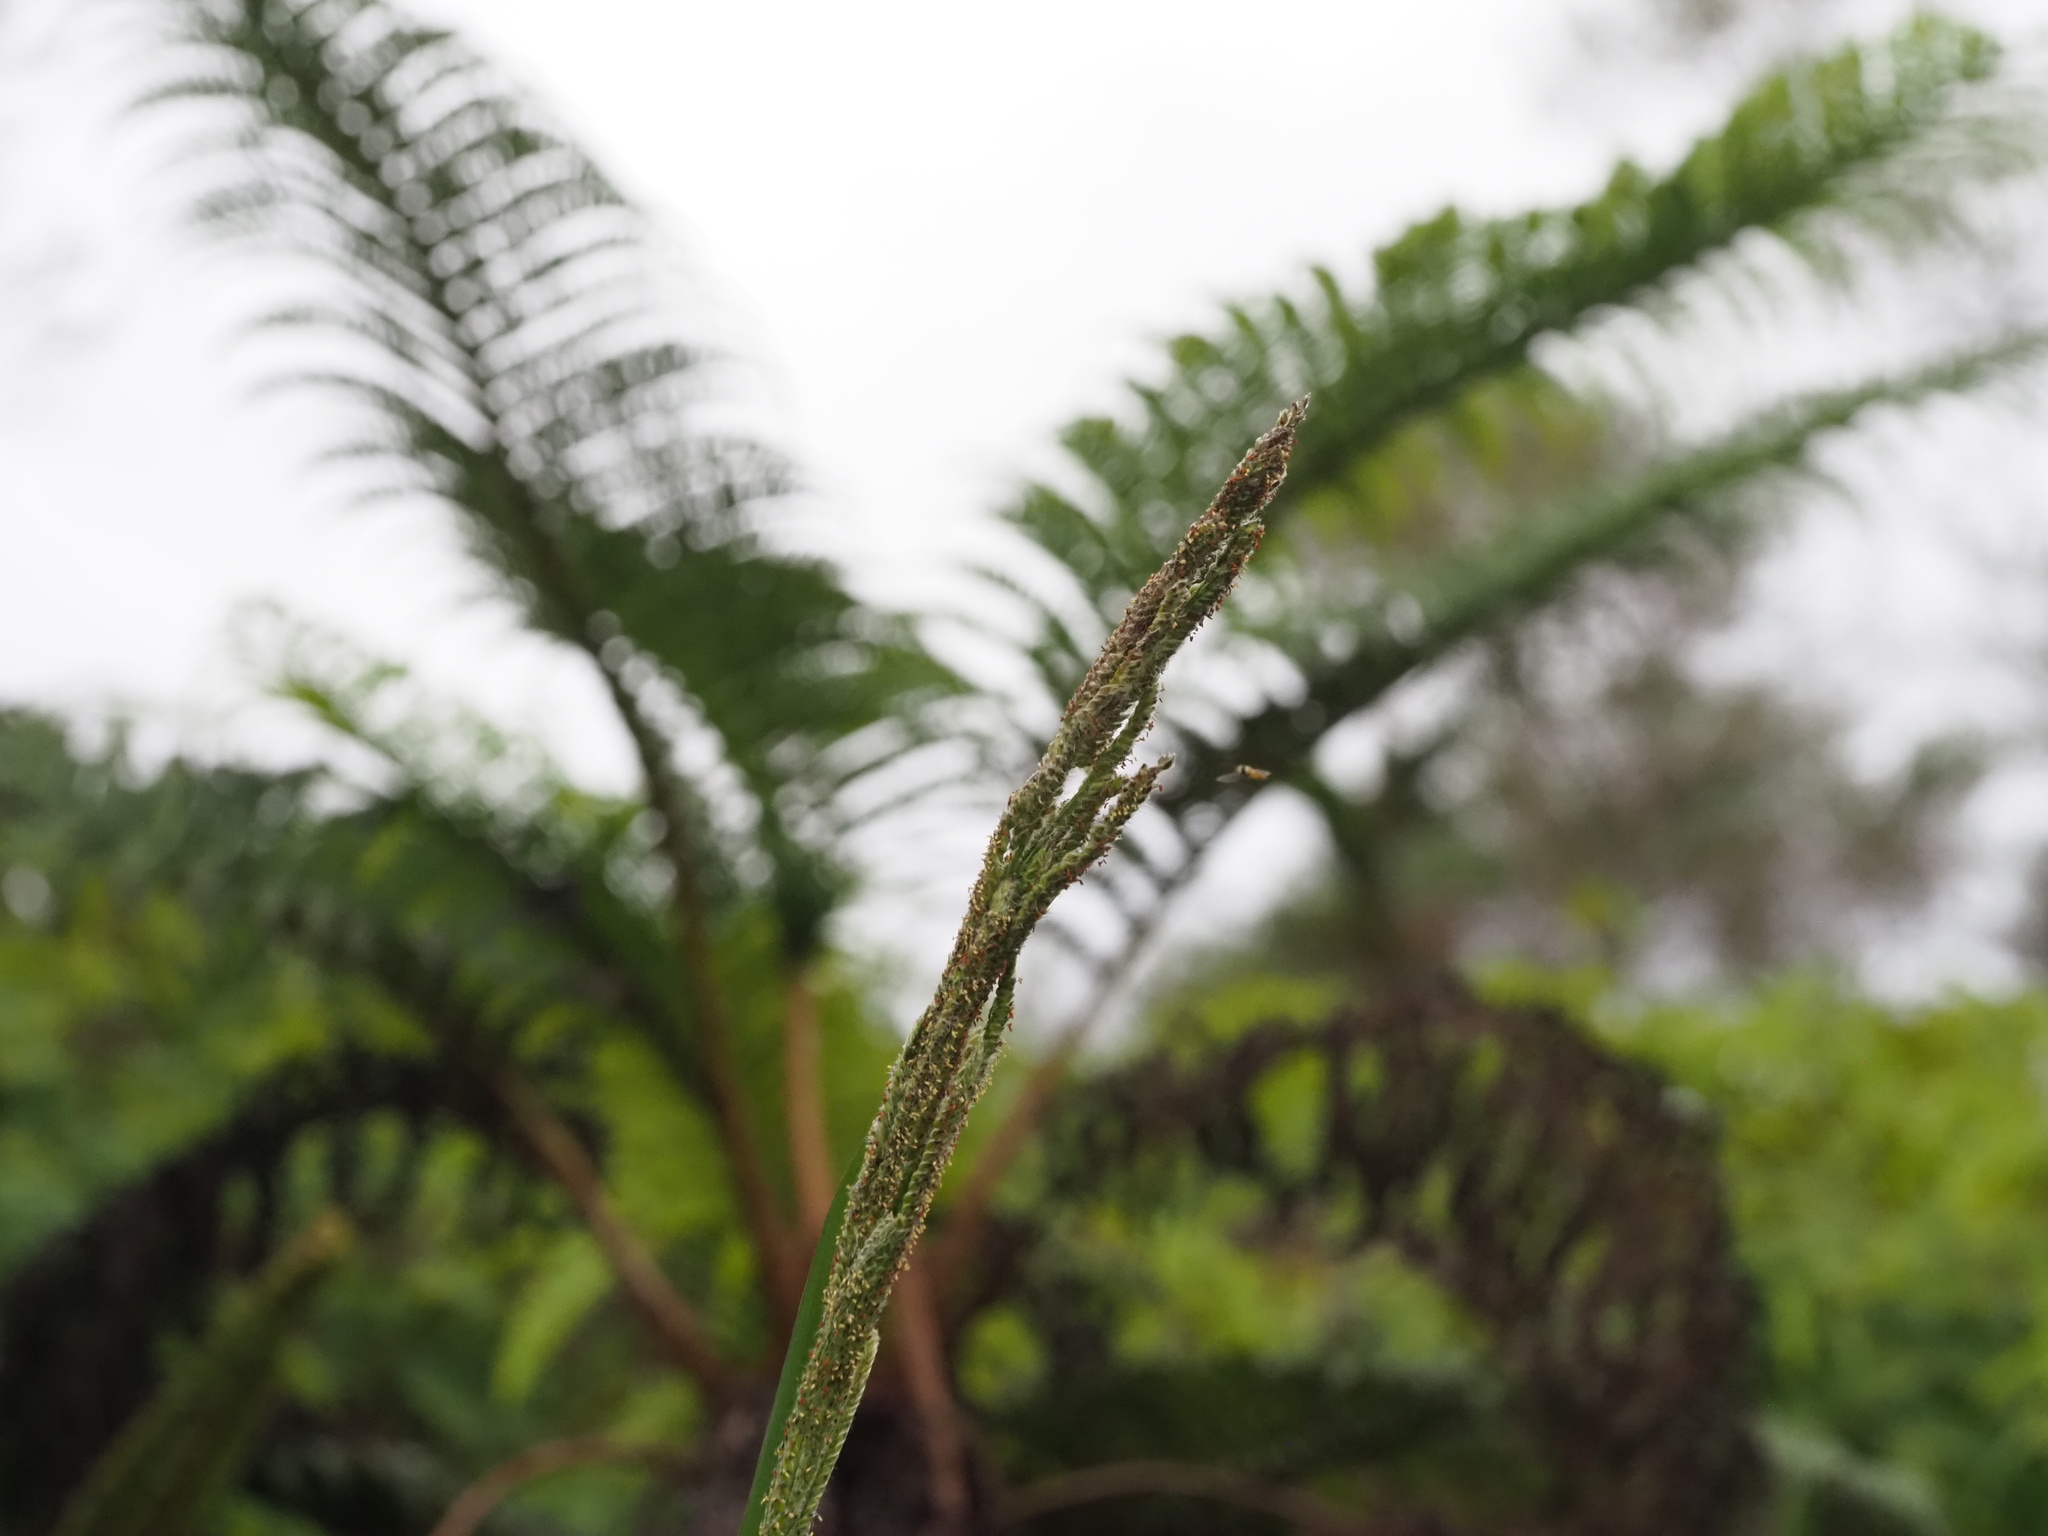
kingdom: Plantae
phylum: Tracheophyta
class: Liliopsida
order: Poales
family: Poaceae
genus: Paspalum
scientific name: Paspalum urvillei
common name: Vasey's grass
